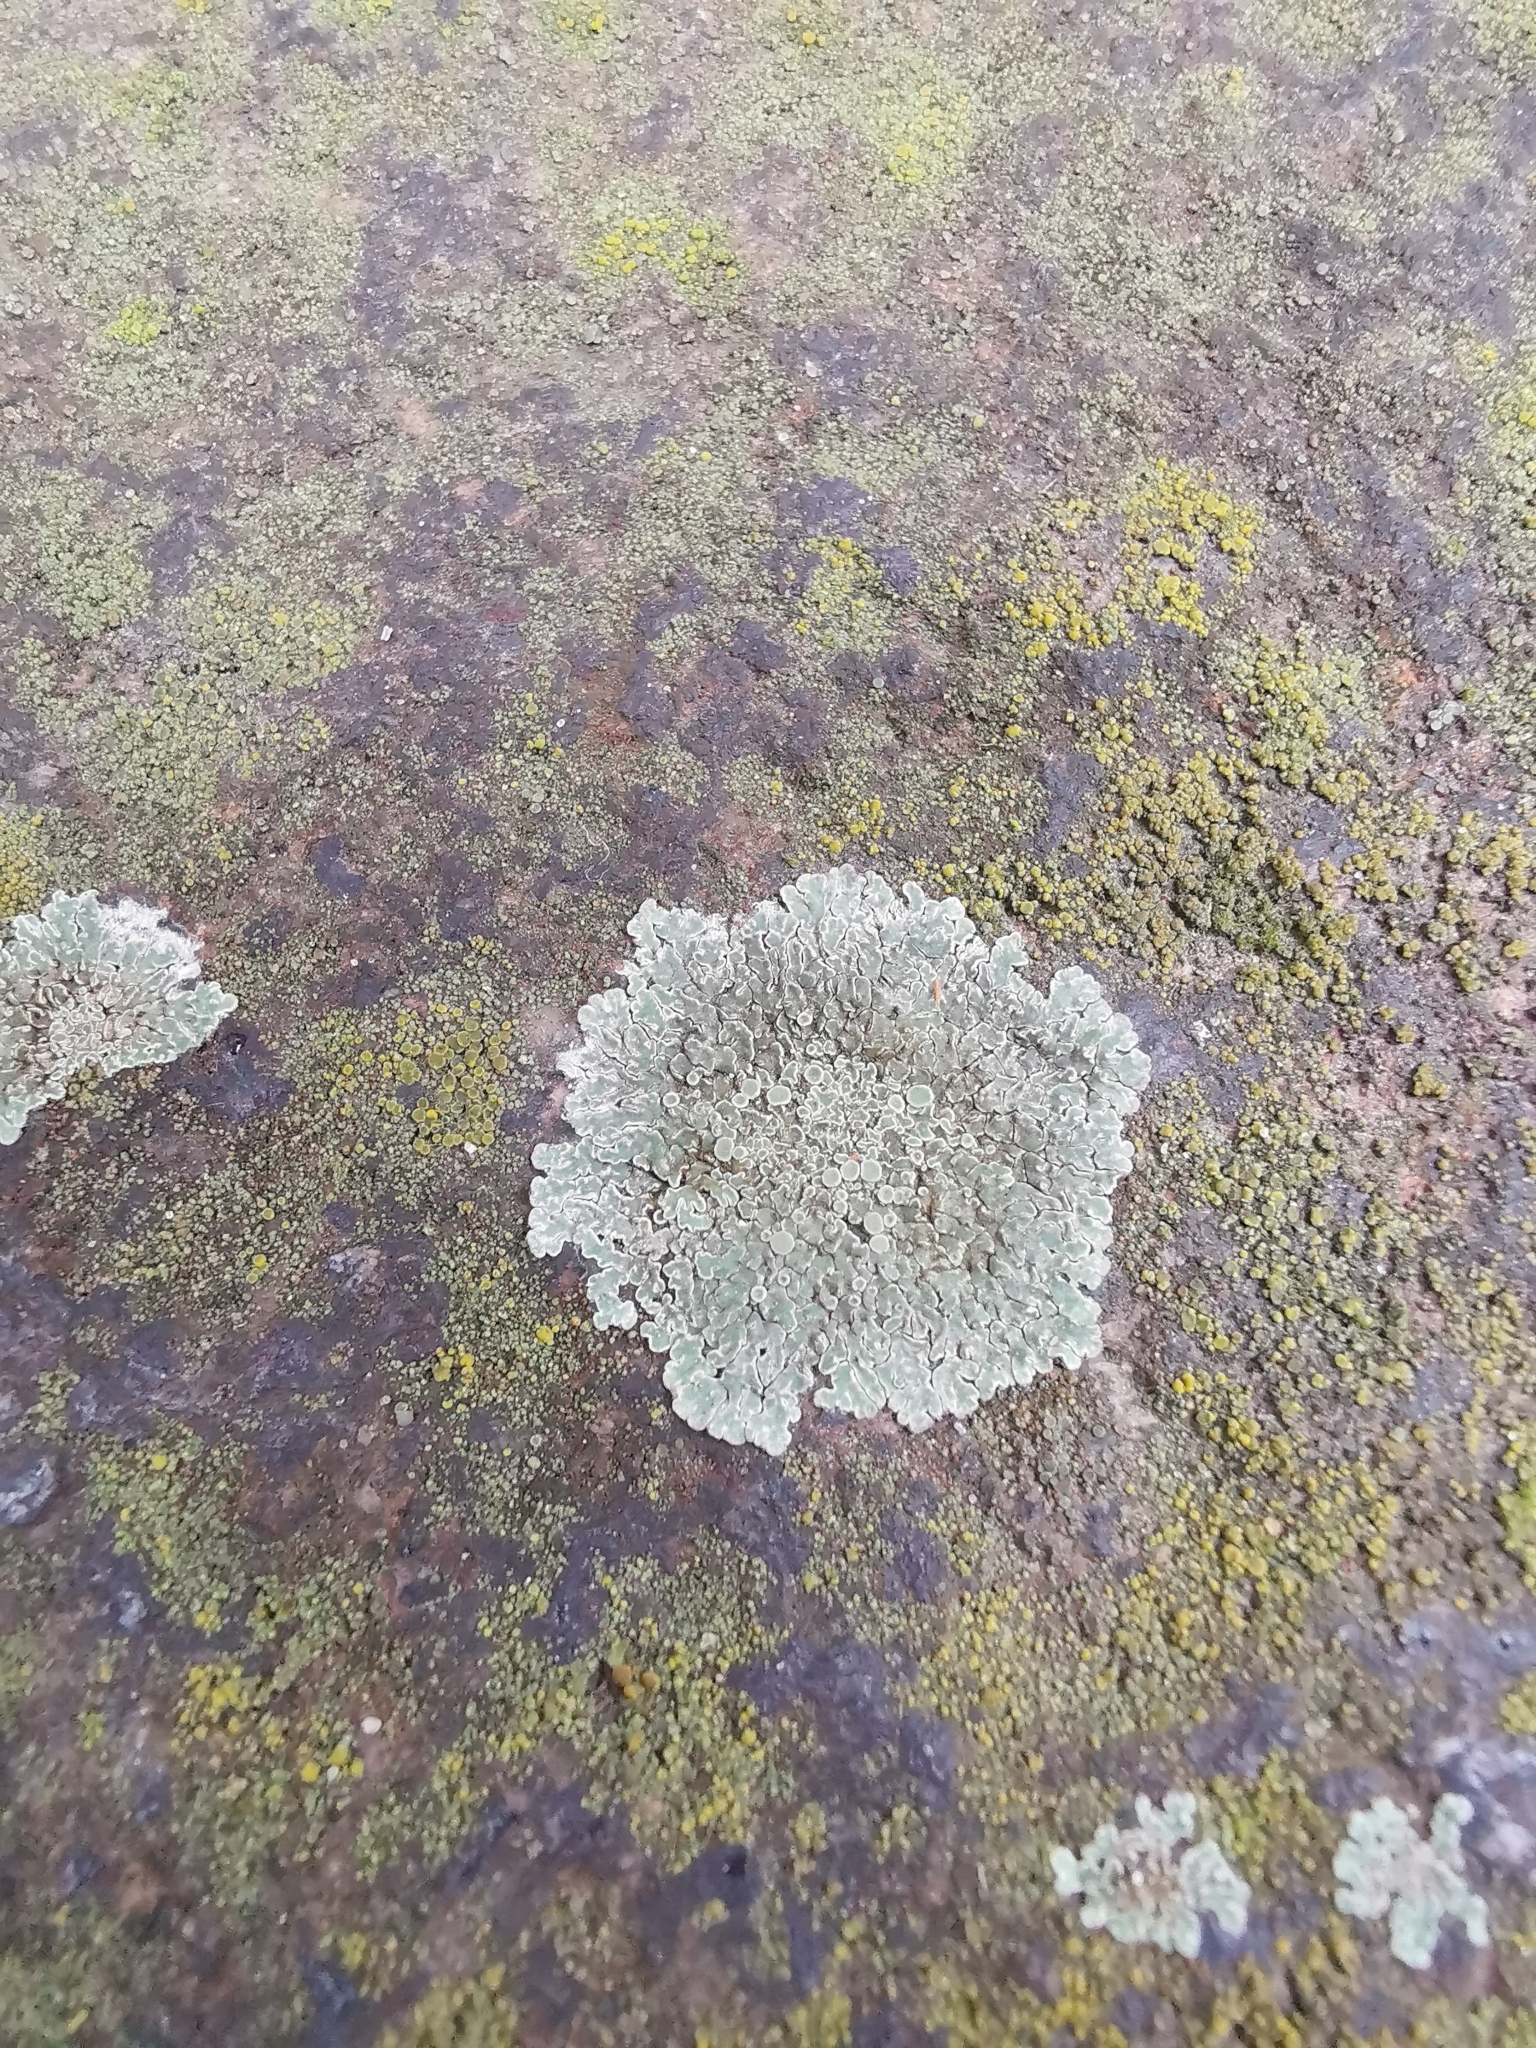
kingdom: Fungi
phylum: Ascomycota
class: Lecanoromycetes
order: Lecanorales
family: Lecanoraceae
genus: Protoparmeliopsis
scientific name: Protoparmeliopsis muralis
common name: Stonewall rim lichen
